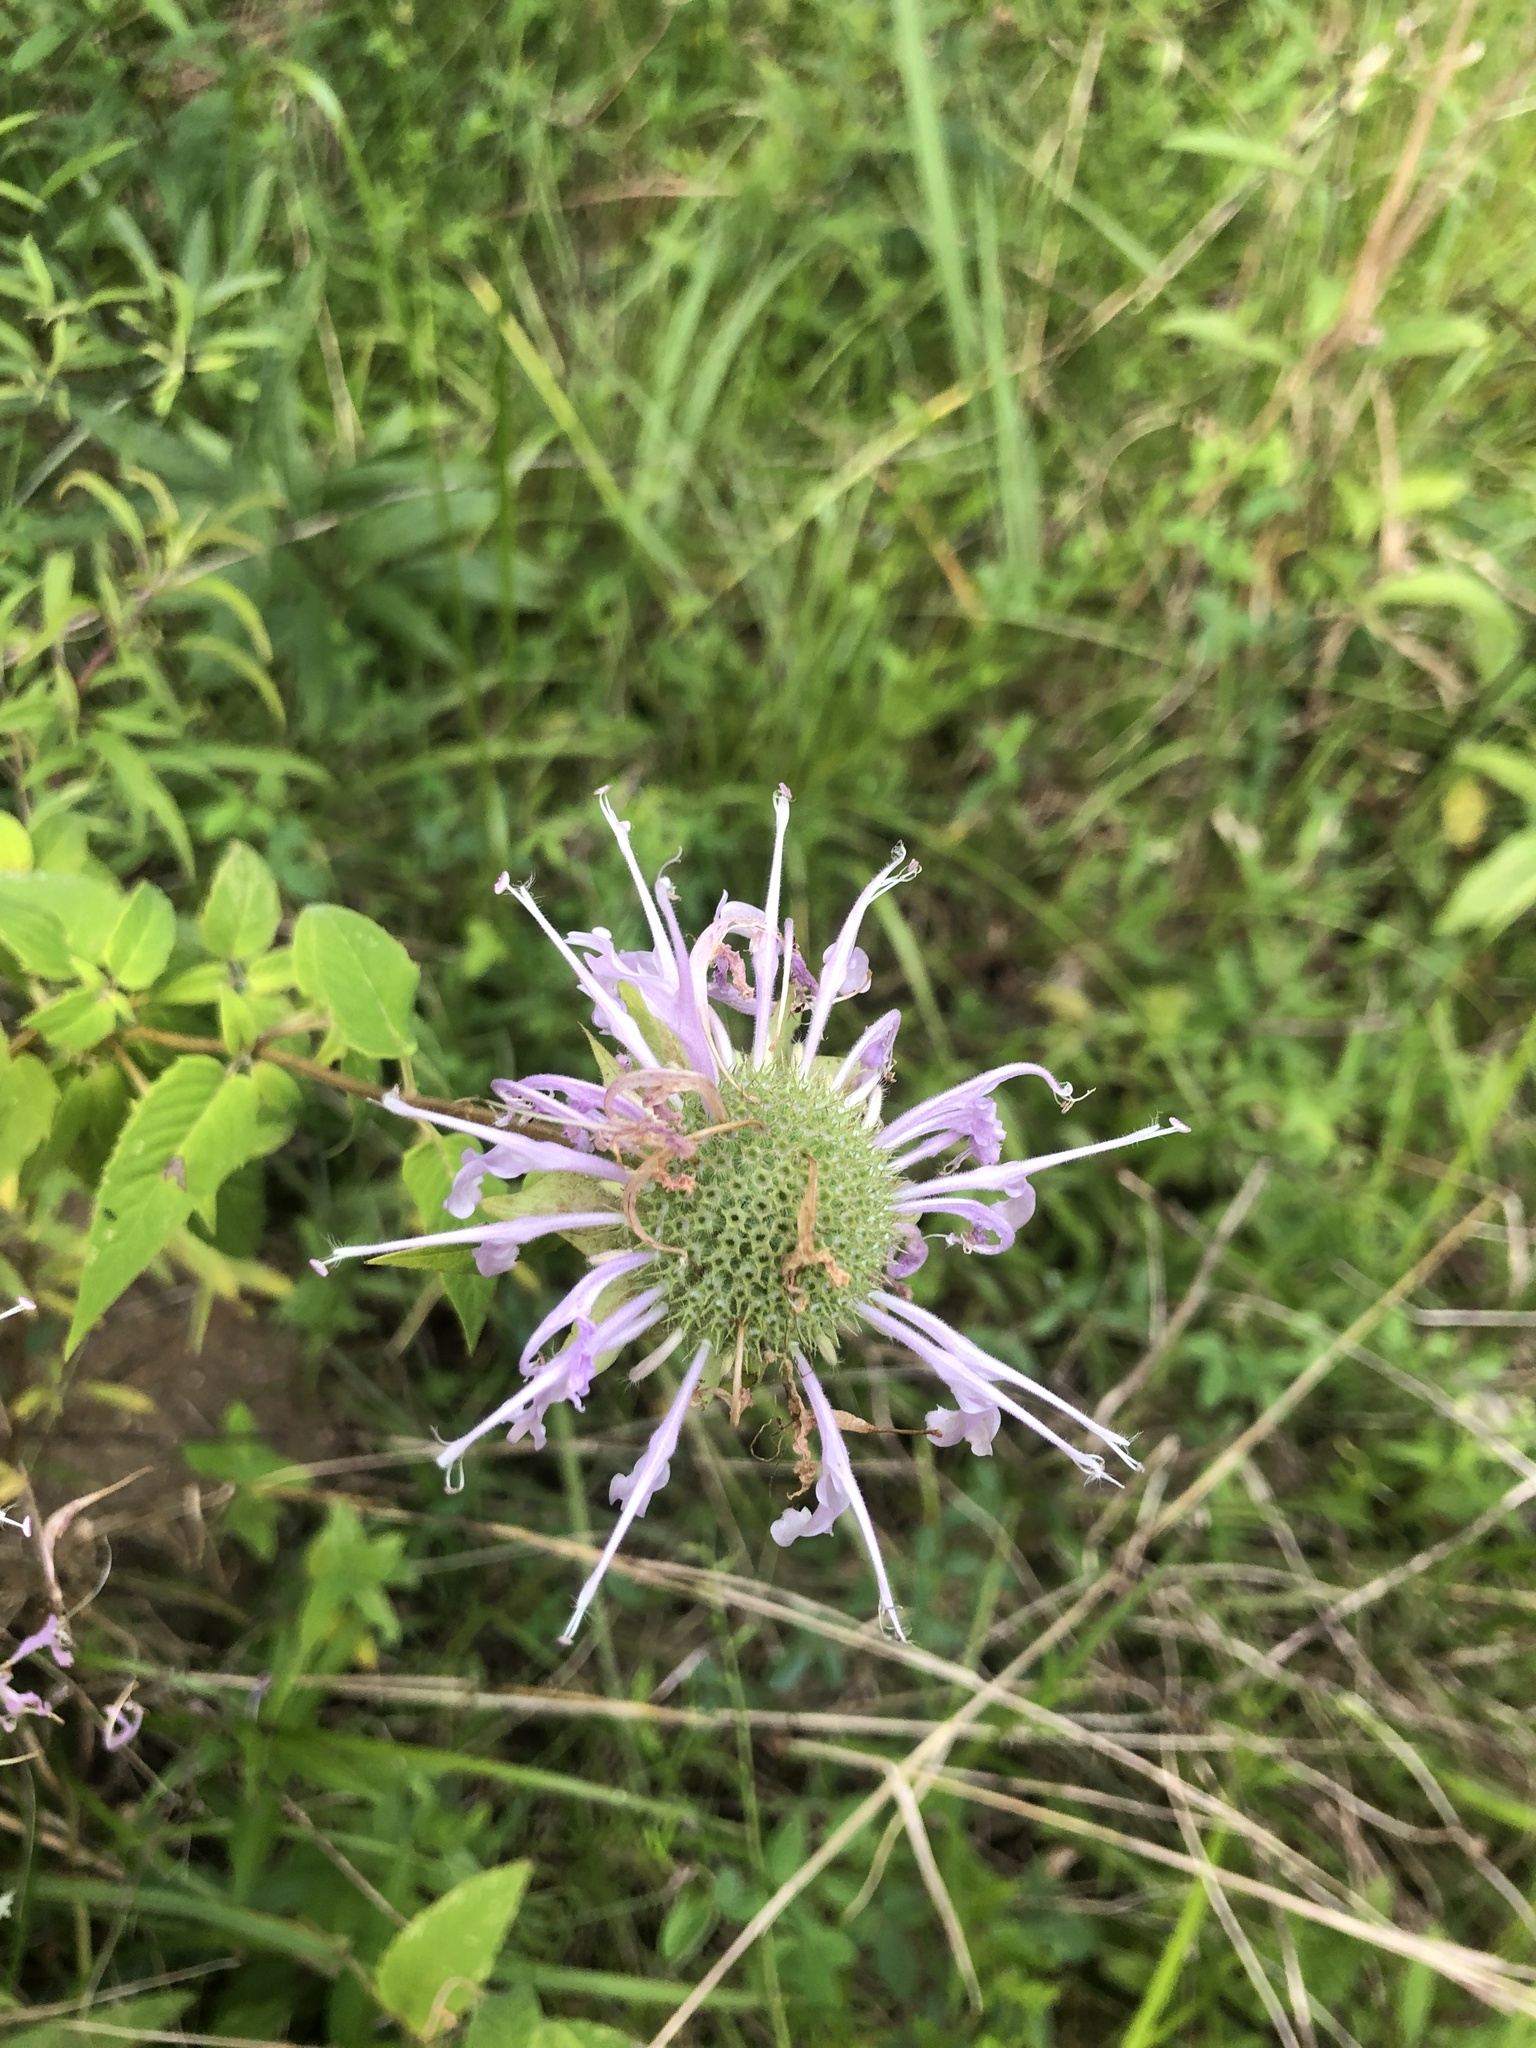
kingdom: Plantae
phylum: Tracheophyta
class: Magnoliopsida
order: Lamiales
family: Lamiaceae
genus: Monarda
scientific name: Monarda fistulosa
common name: Purple beebalm
